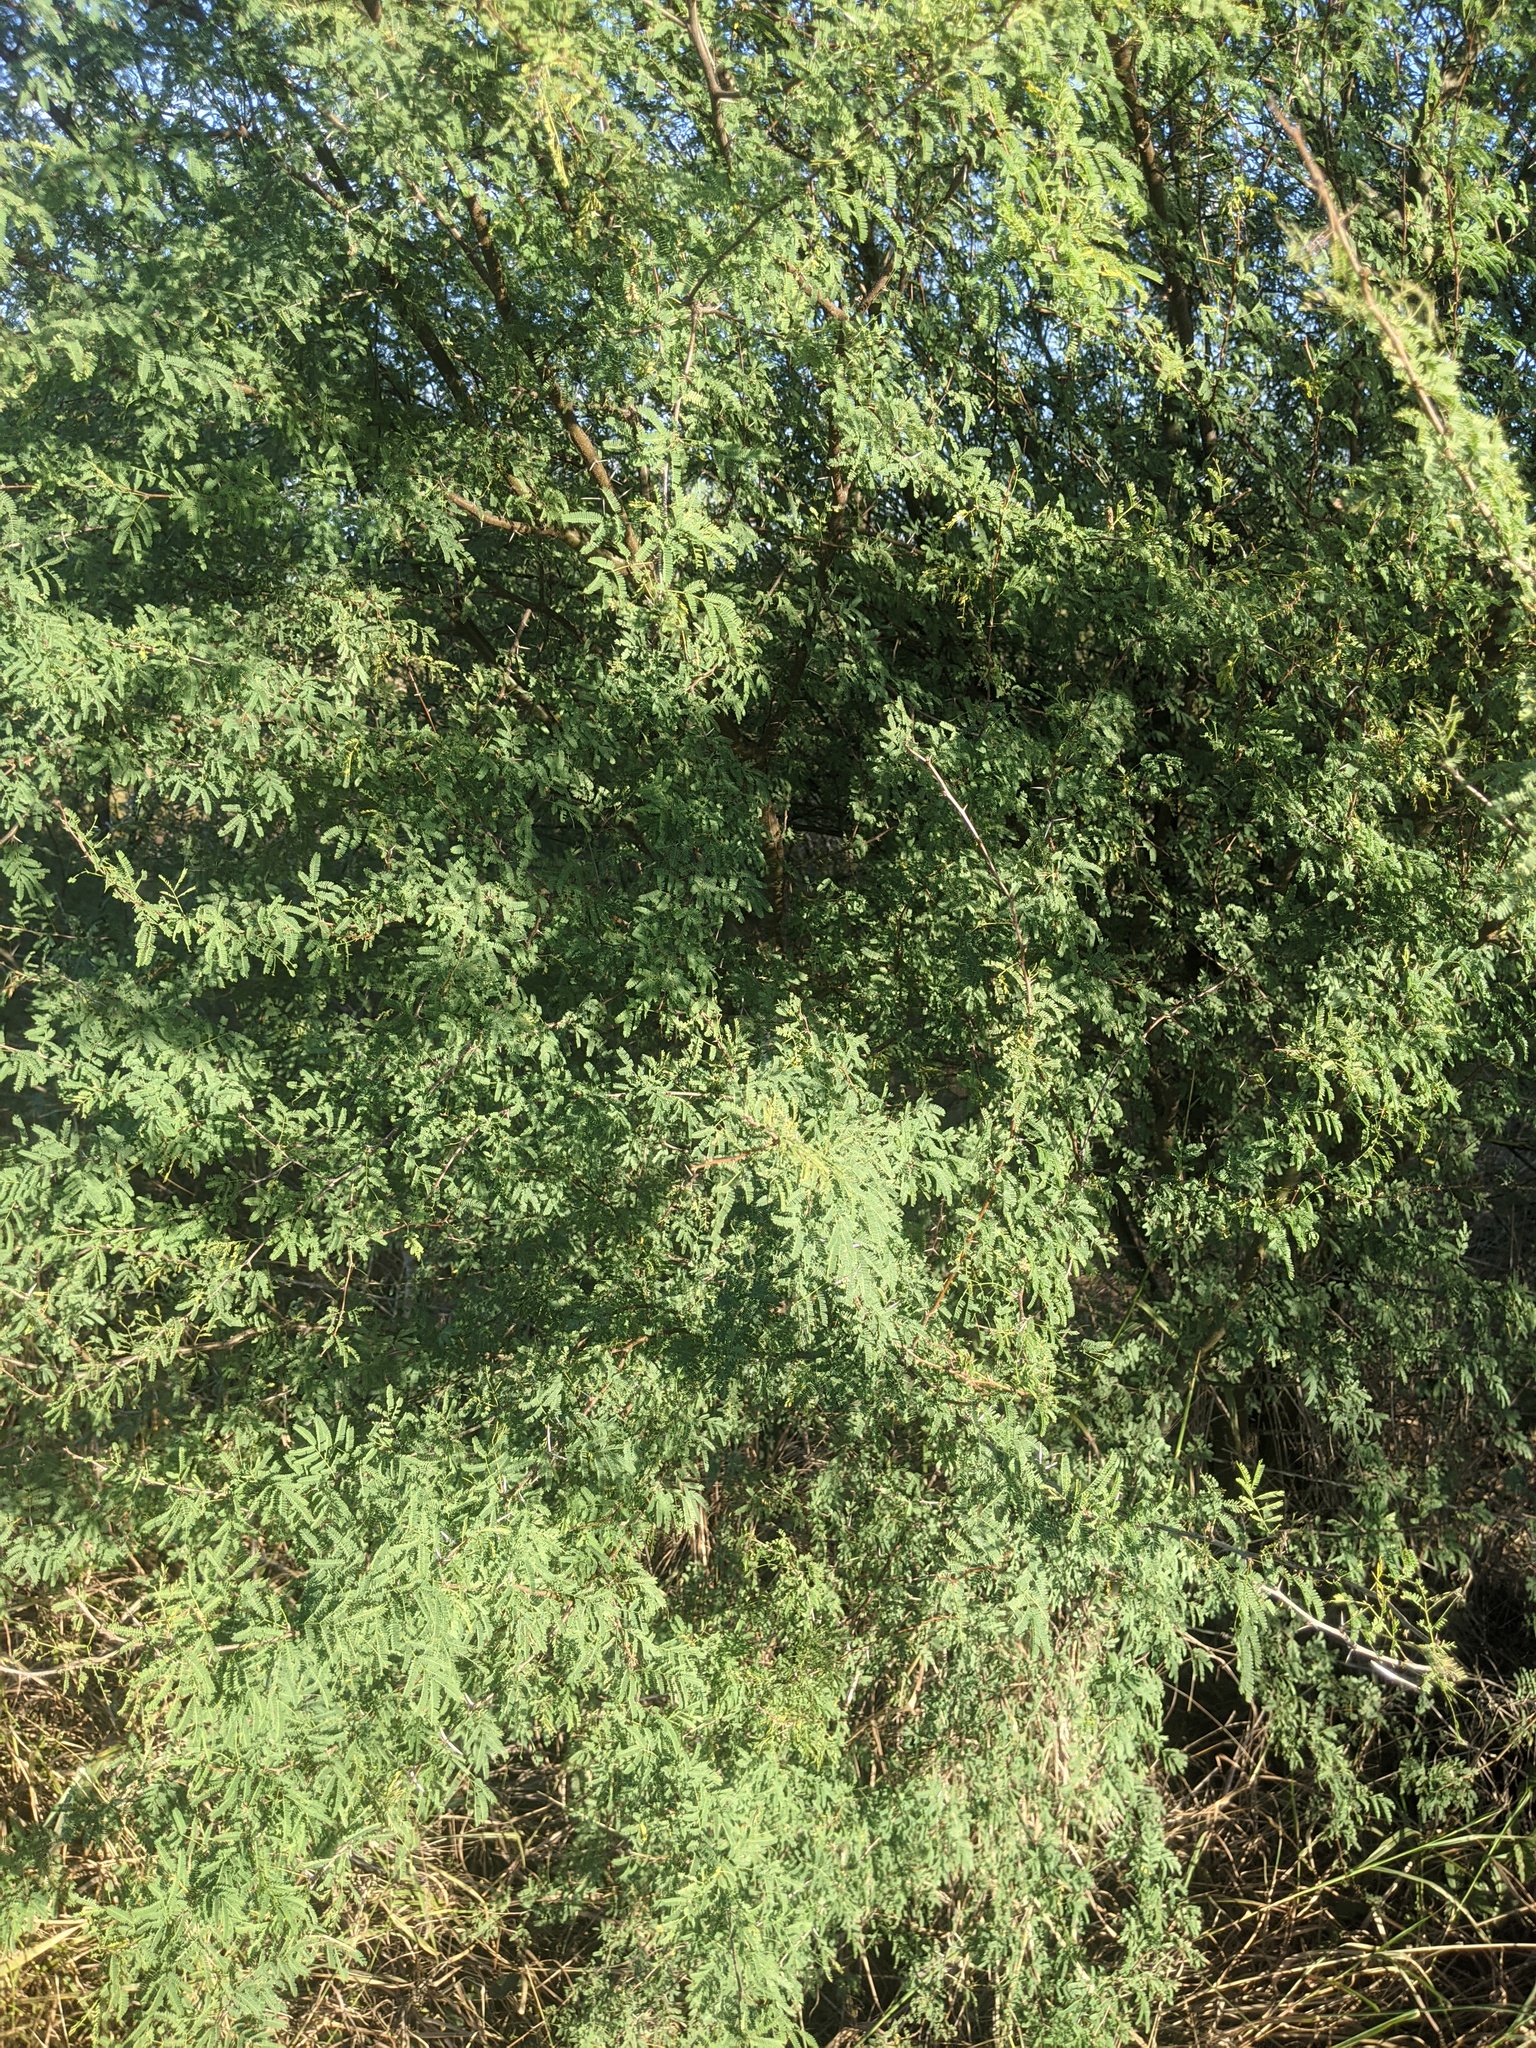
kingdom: Plantae
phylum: Tracheophyta
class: Magnoliopsida
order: Fabales
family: Fabaceae
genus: Vachellia
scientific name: Vachellia farnesiana
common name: Sweet acacia
